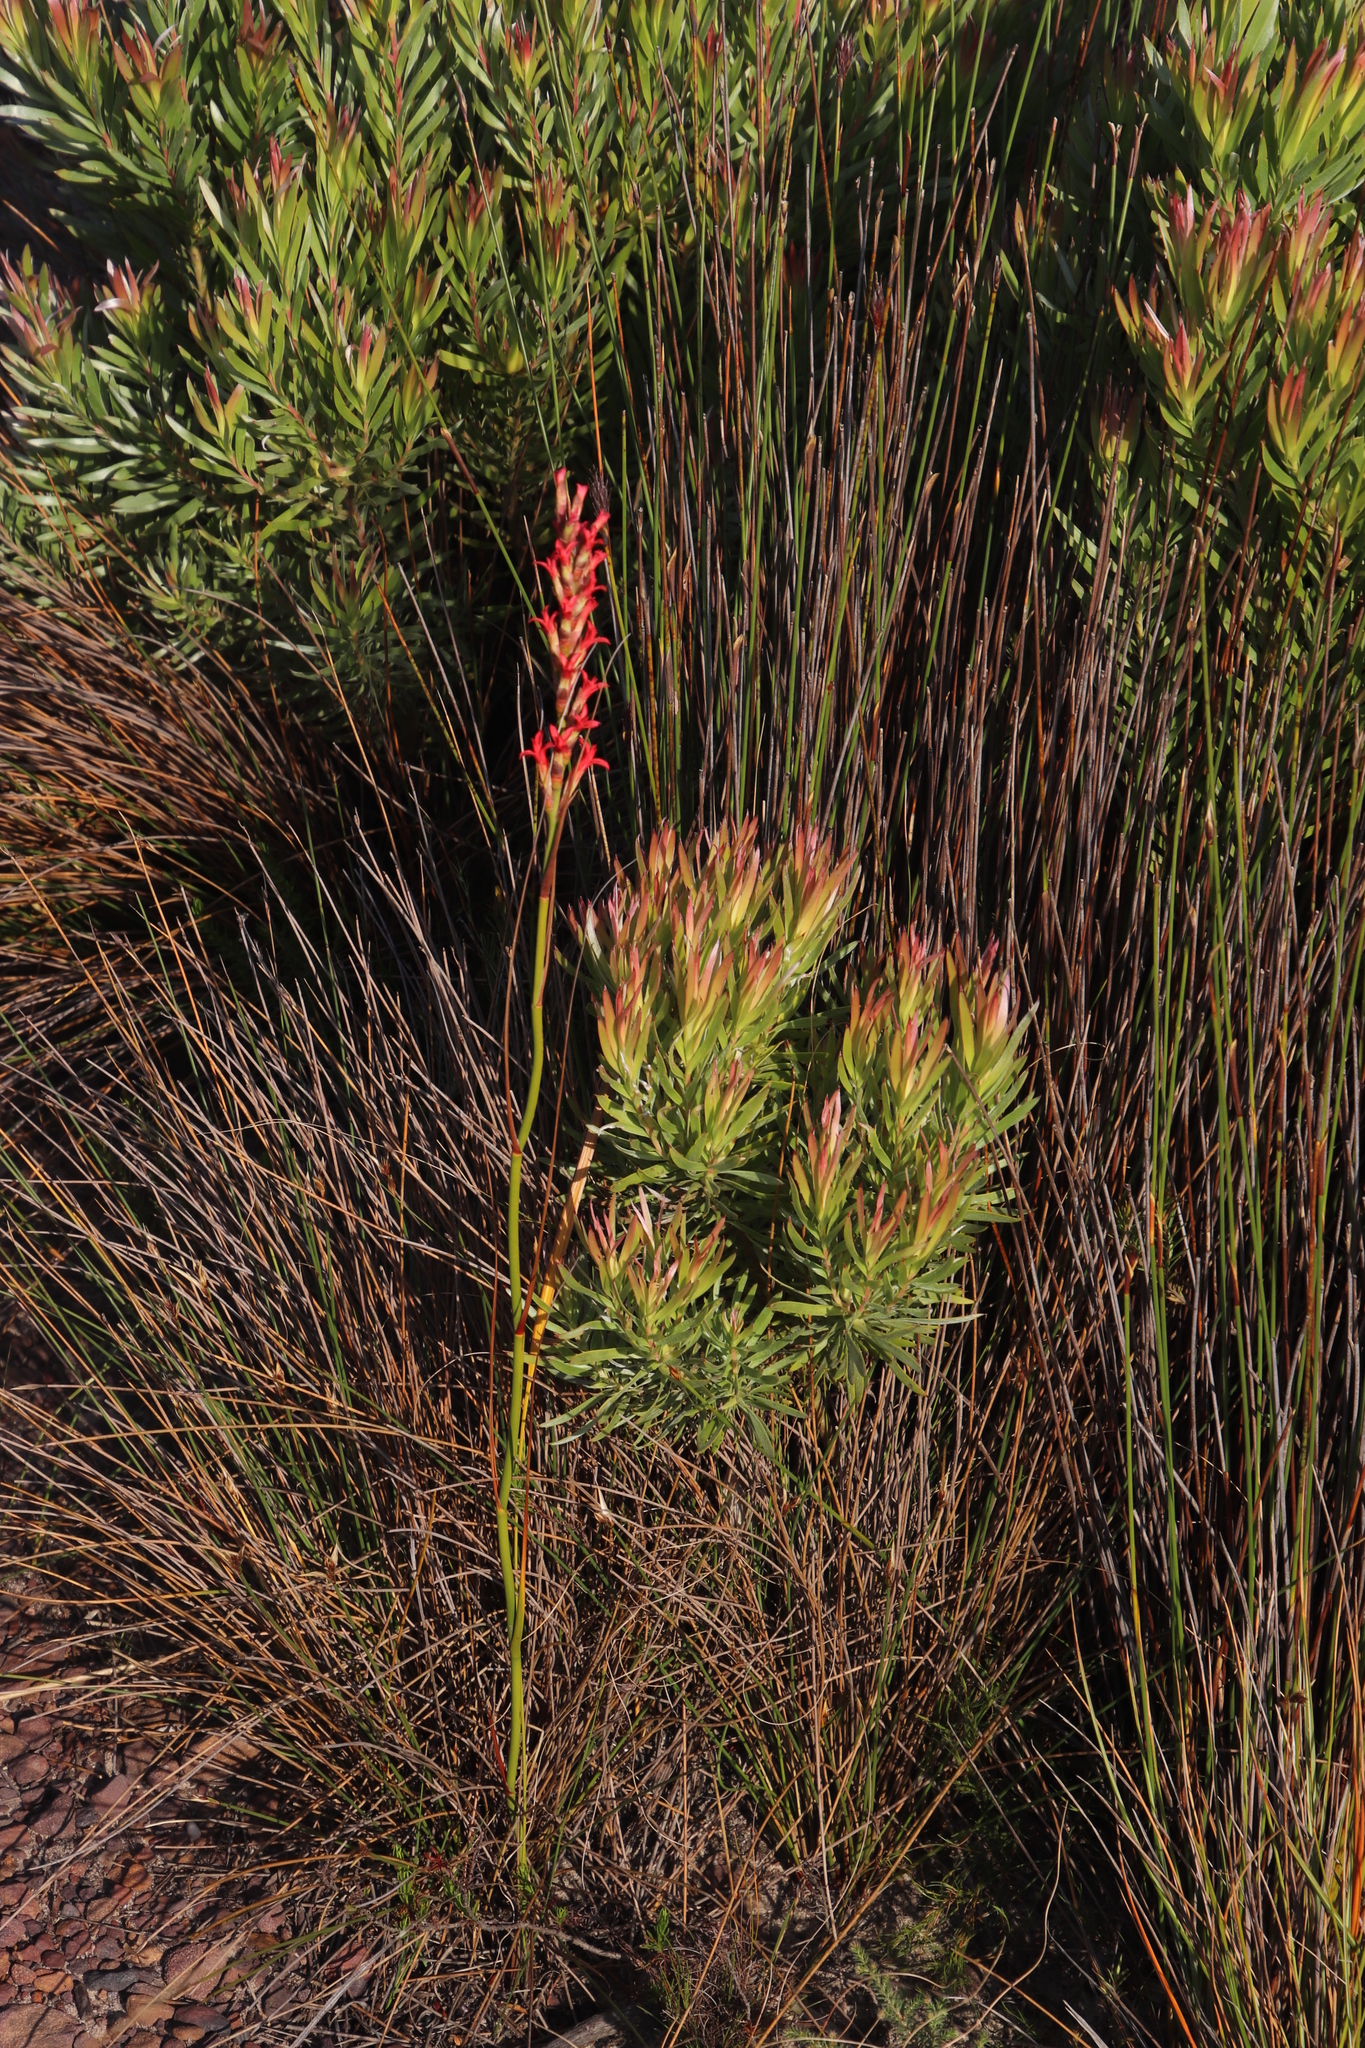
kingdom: Plantae
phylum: Tracheophyta
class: Magnoliopsida
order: Proteales
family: Proteaceae
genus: Leucadendron
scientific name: Leucadendron xanthoconus
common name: Sickle-leaf conebush
